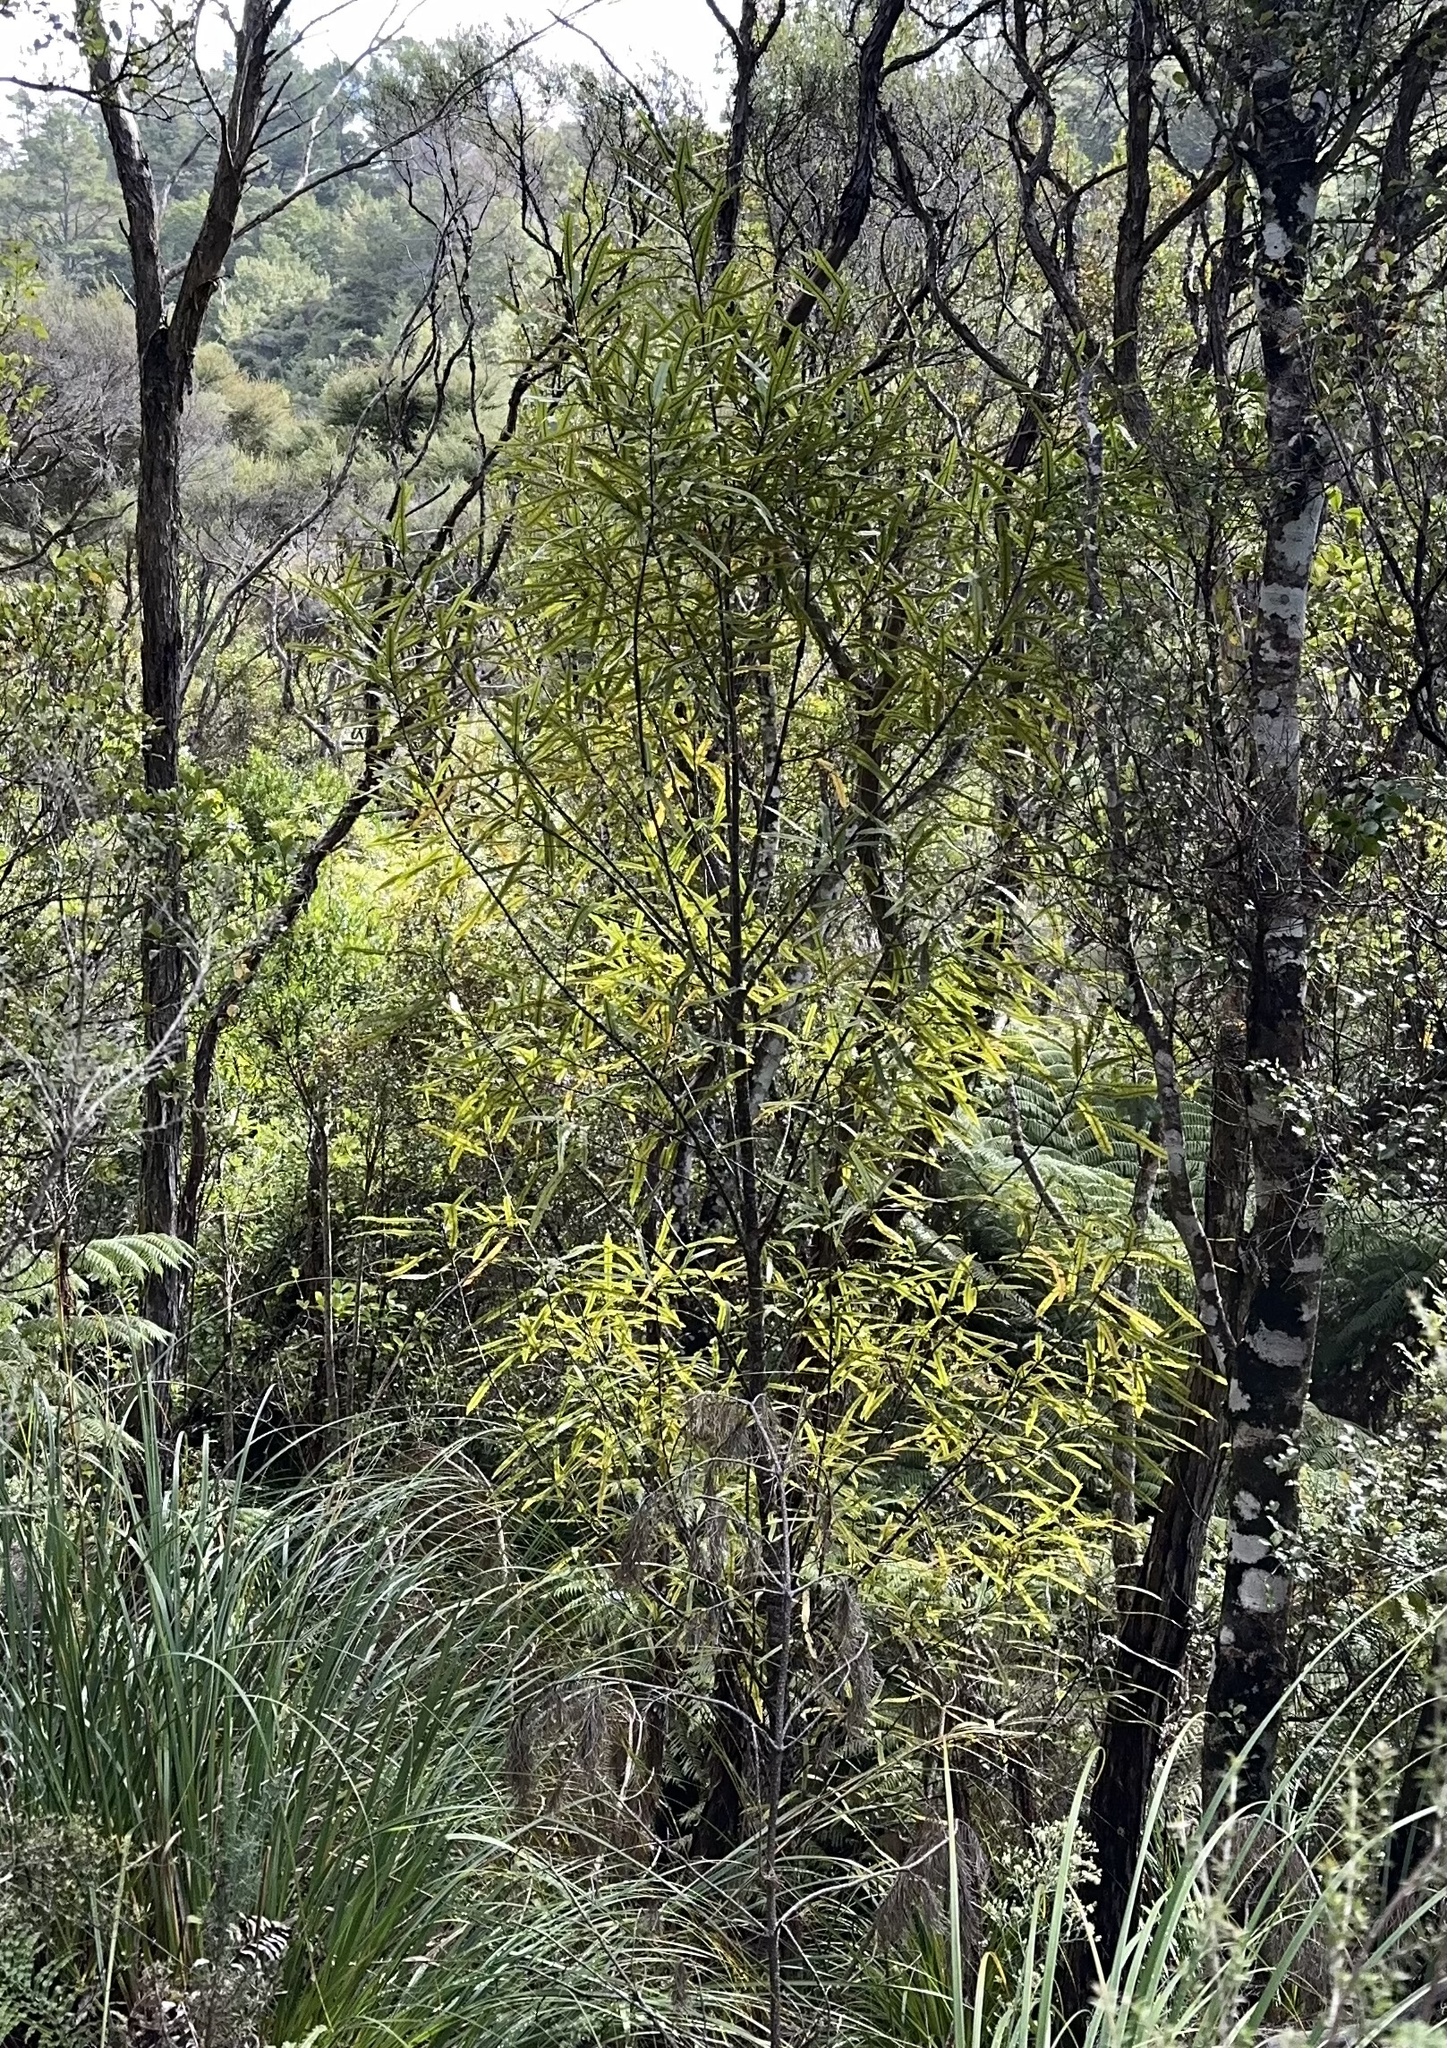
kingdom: Plantae
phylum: Tracheophyta
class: Magnoliopsida
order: Proteales
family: Proteaceae
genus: Knightia
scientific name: Knightia excelsa
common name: New zealand-honeysuckle
